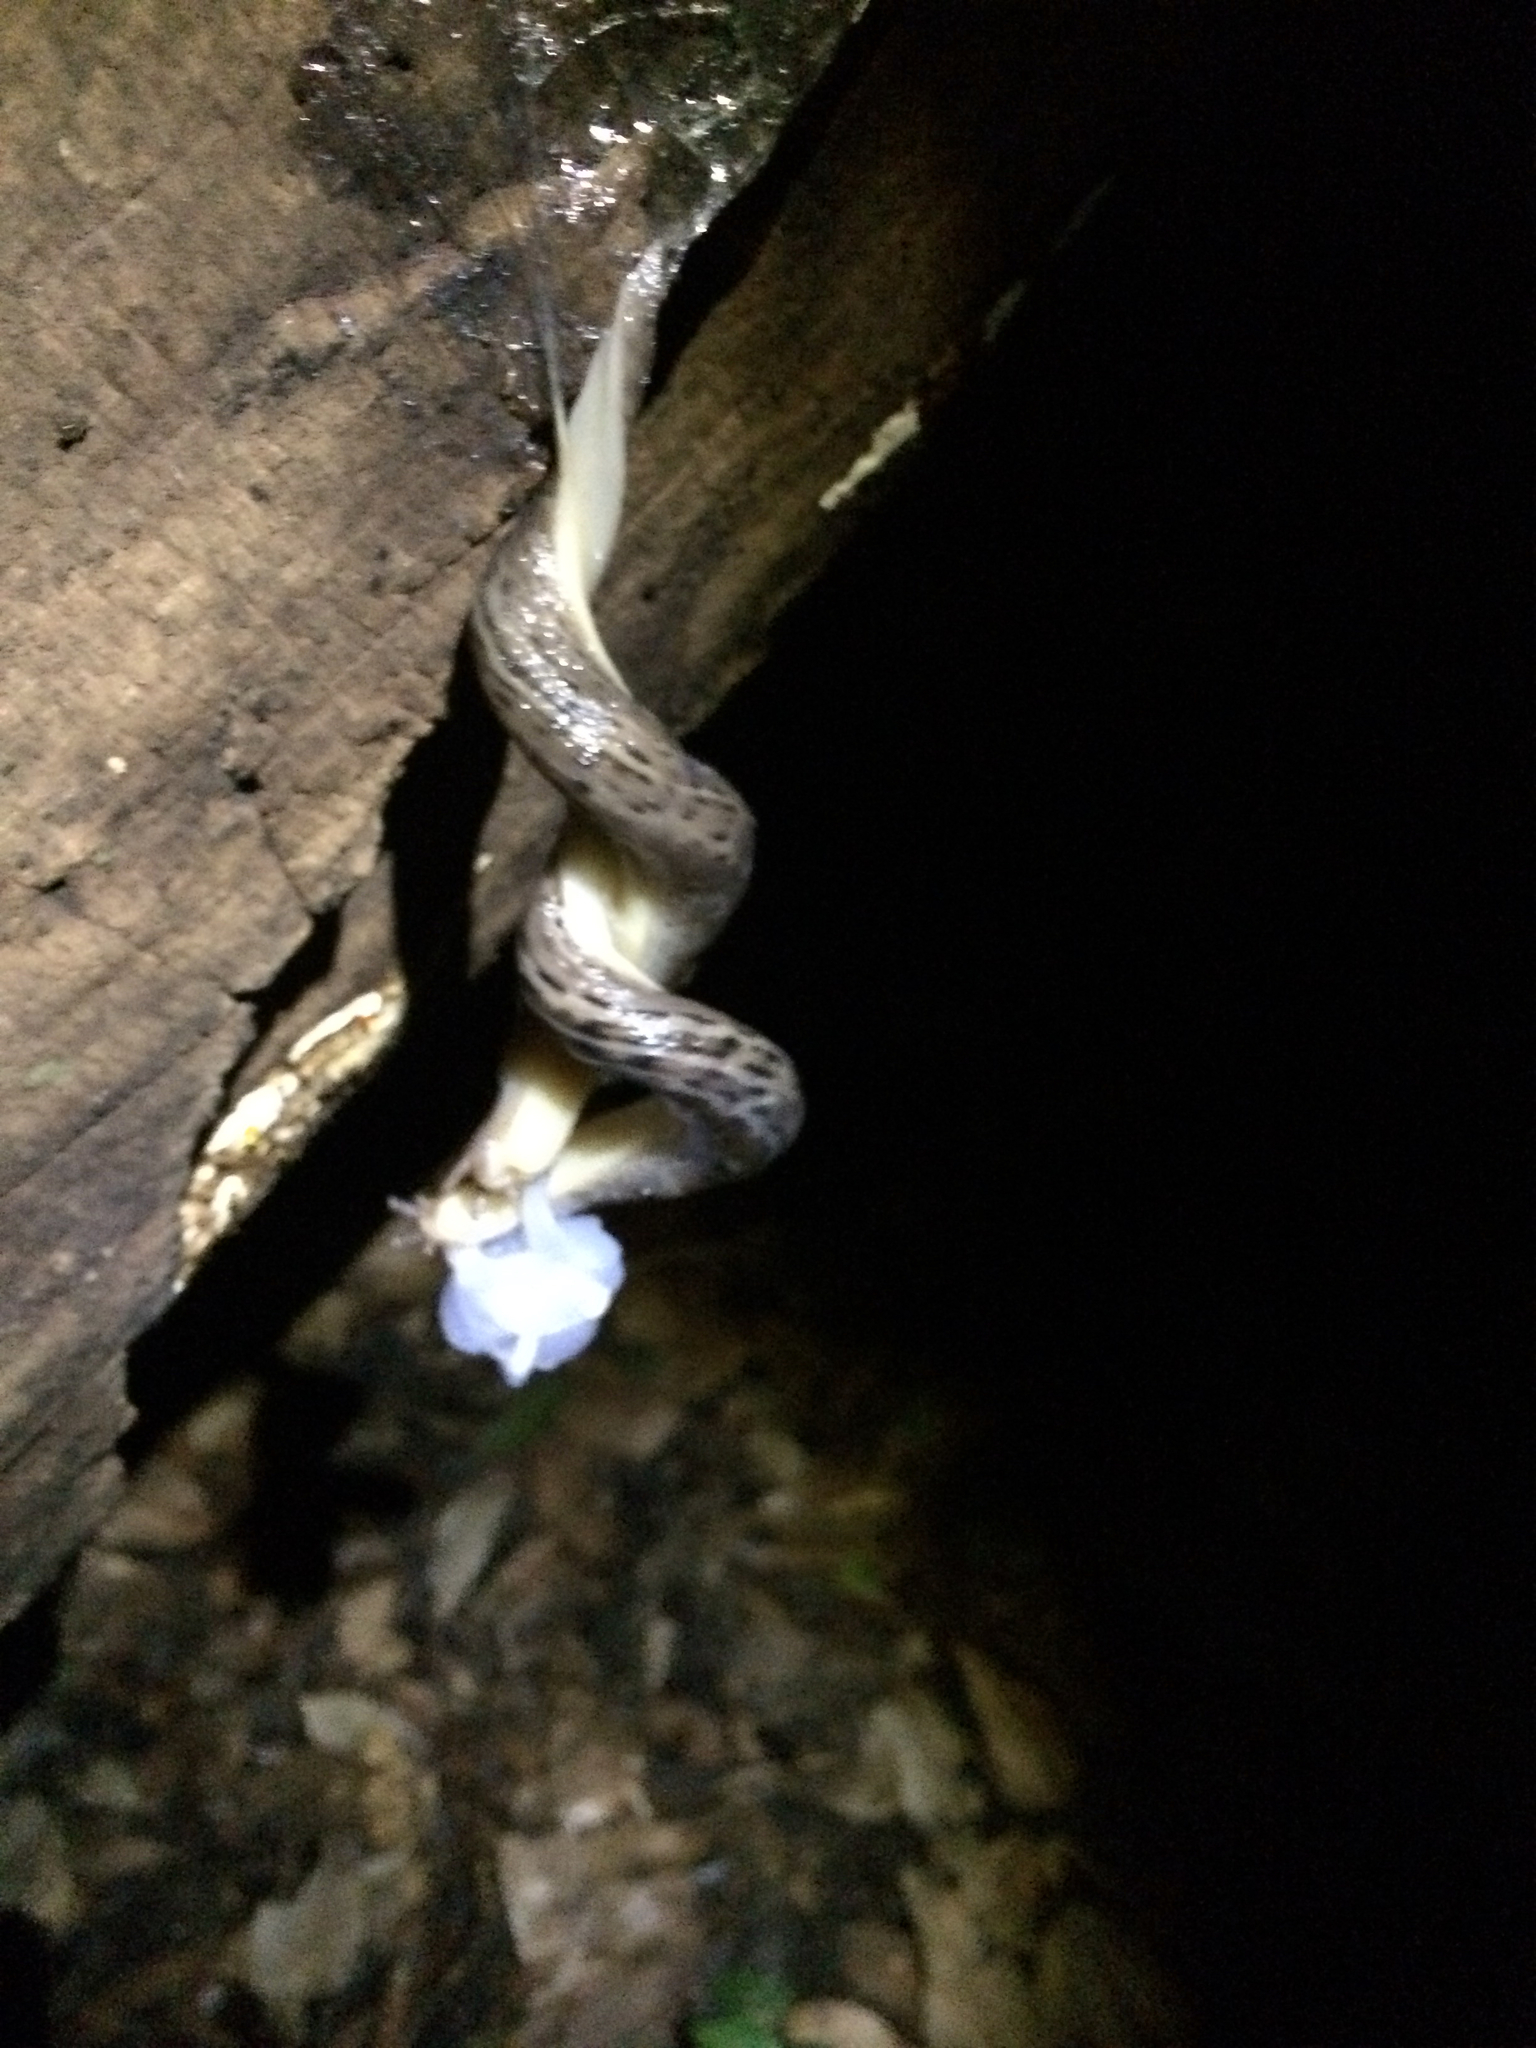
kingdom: Animalia
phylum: Mollusca
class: Gastropoda
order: Stylommatophora
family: Limacidae
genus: Limax
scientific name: Limax maximus
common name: Great grey slug
